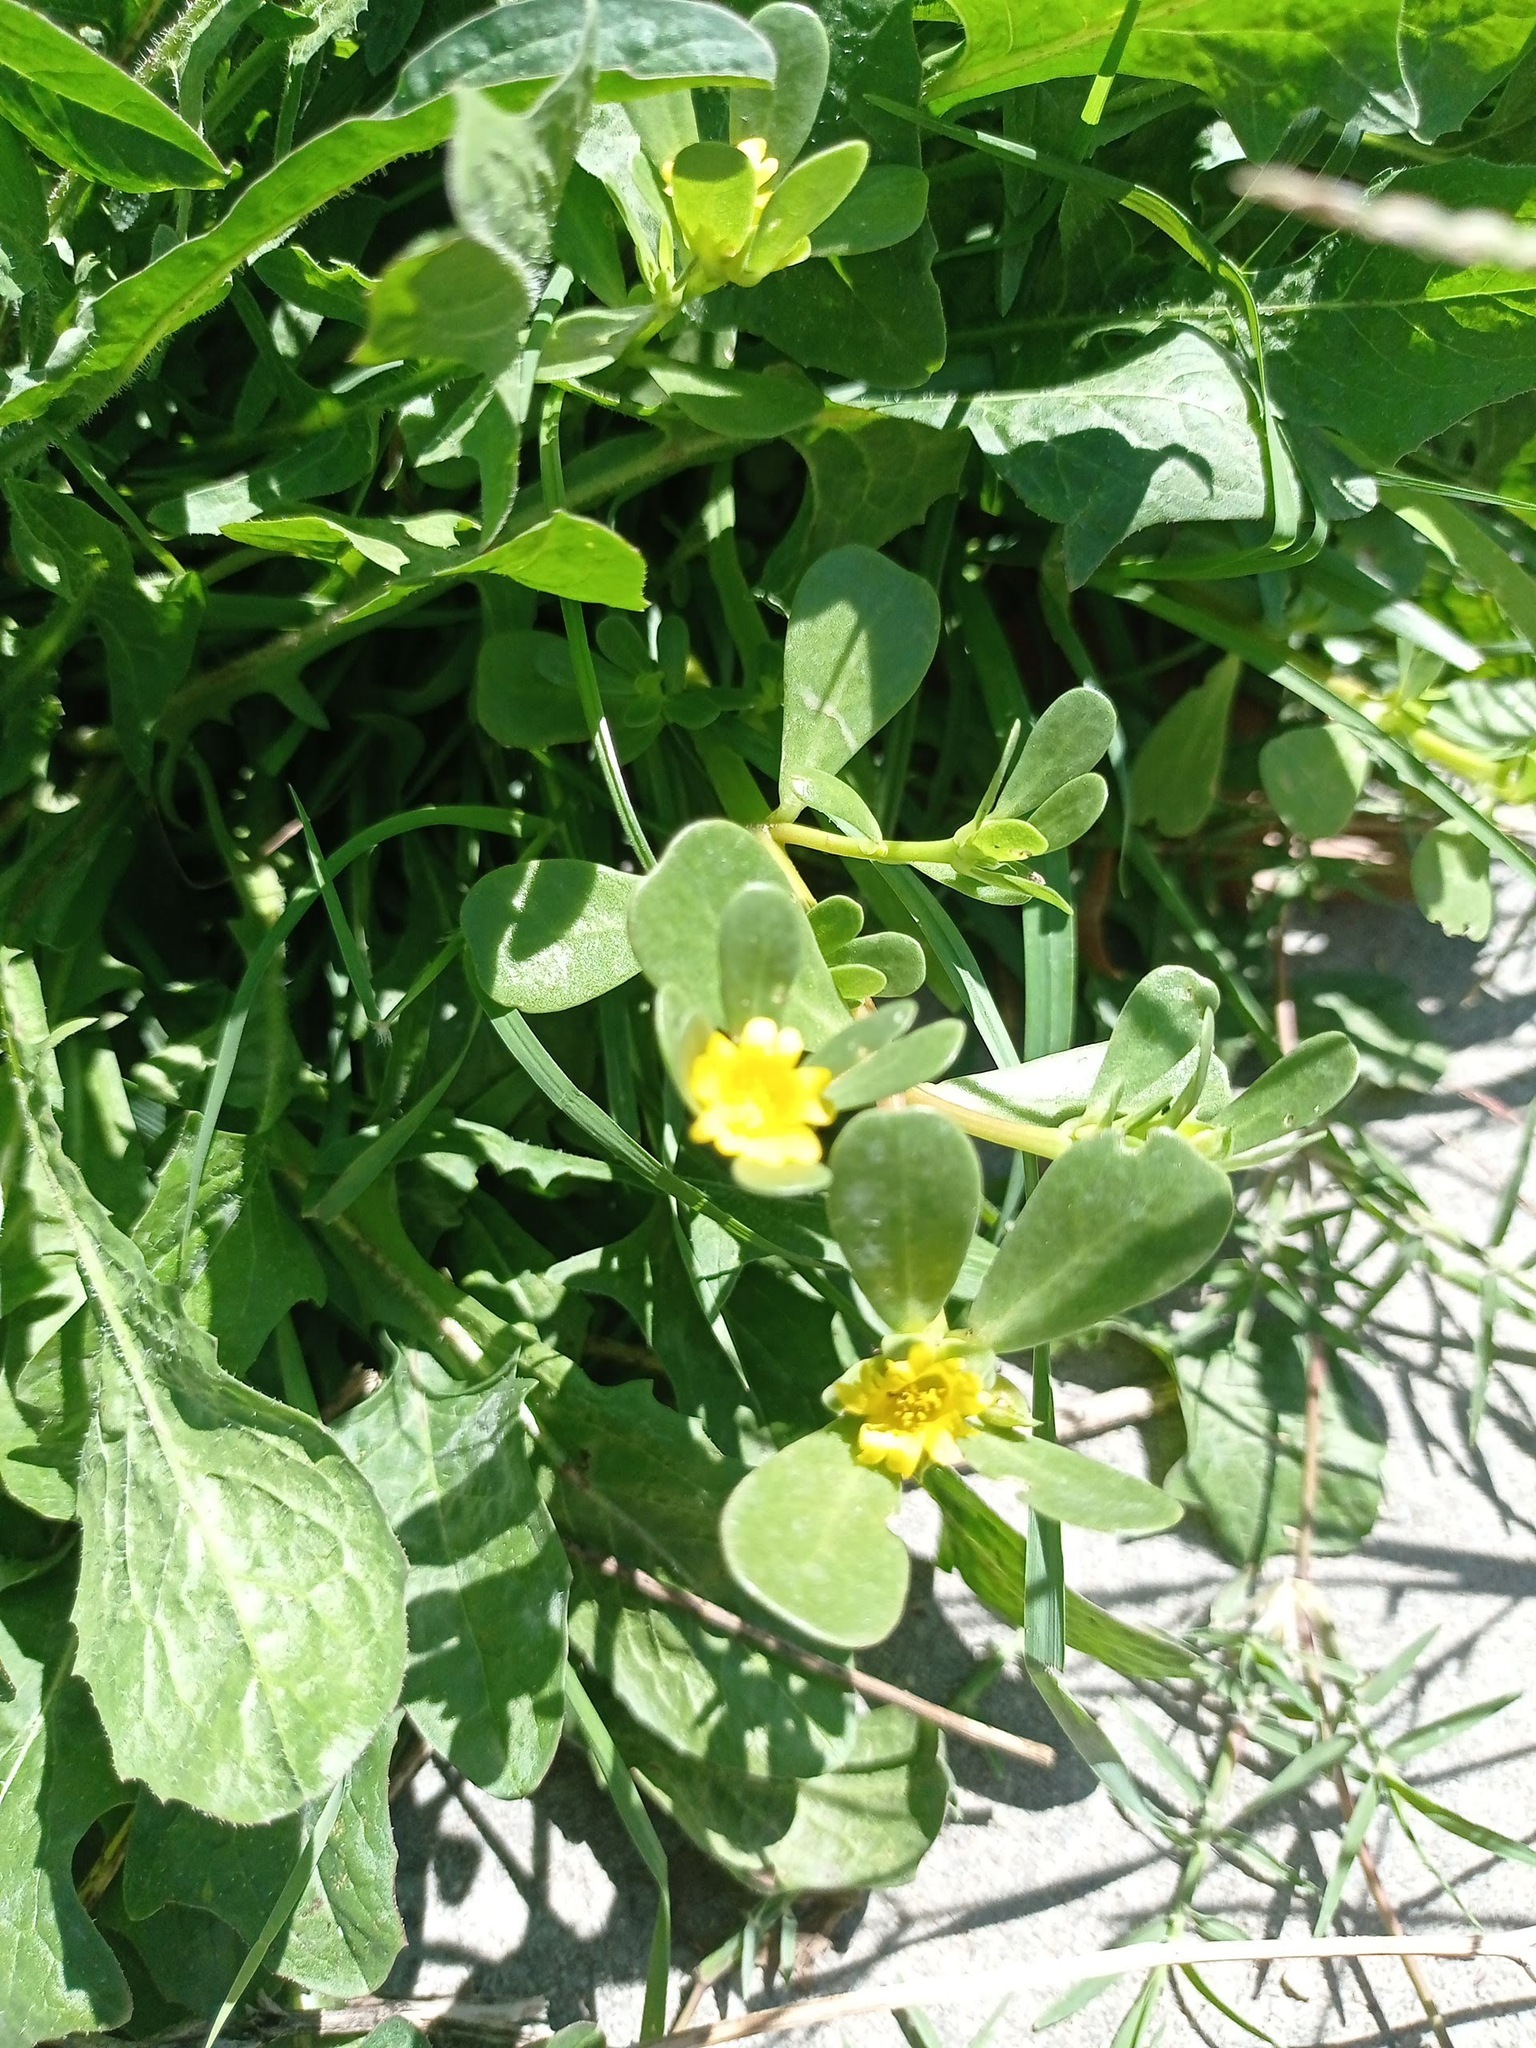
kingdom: Plantae
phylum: Tracheophyta
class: Magnoliopsida
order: Caryophyllales
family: Portulacaceae
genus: Portulaca
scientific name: Portulaca oleracea
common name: Common purslane
